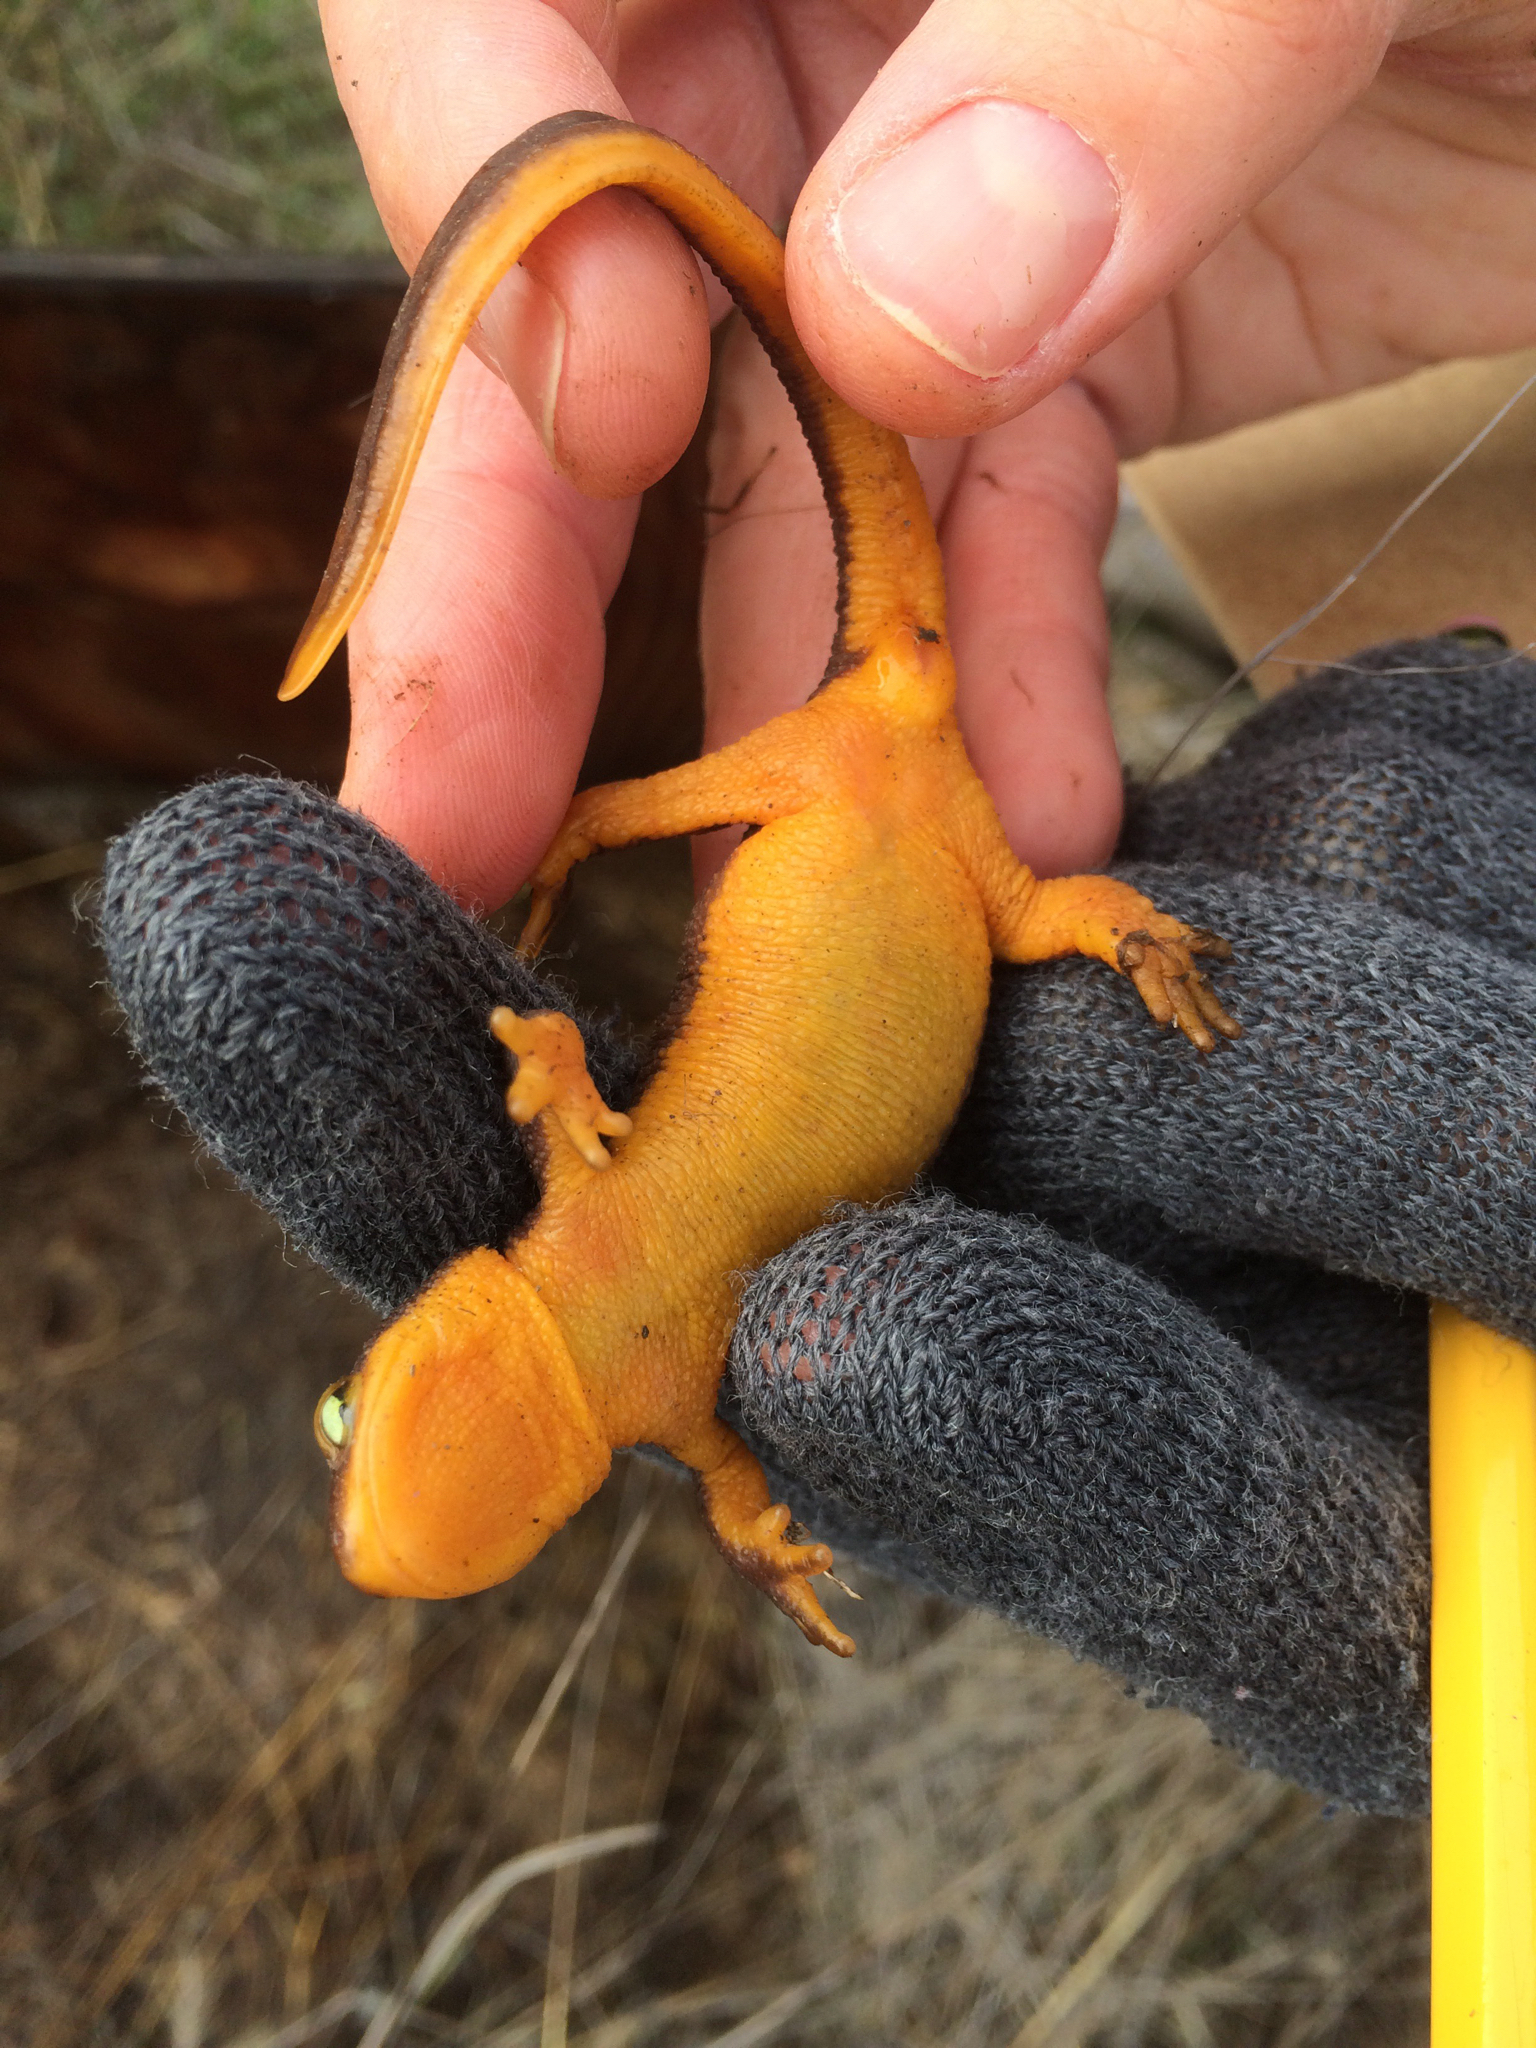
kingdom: Animalia
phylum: Chordata
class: Amphibia
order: Caudata
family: Salamandridae
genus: Taricha
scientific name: Taricha torosa
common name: California newt
